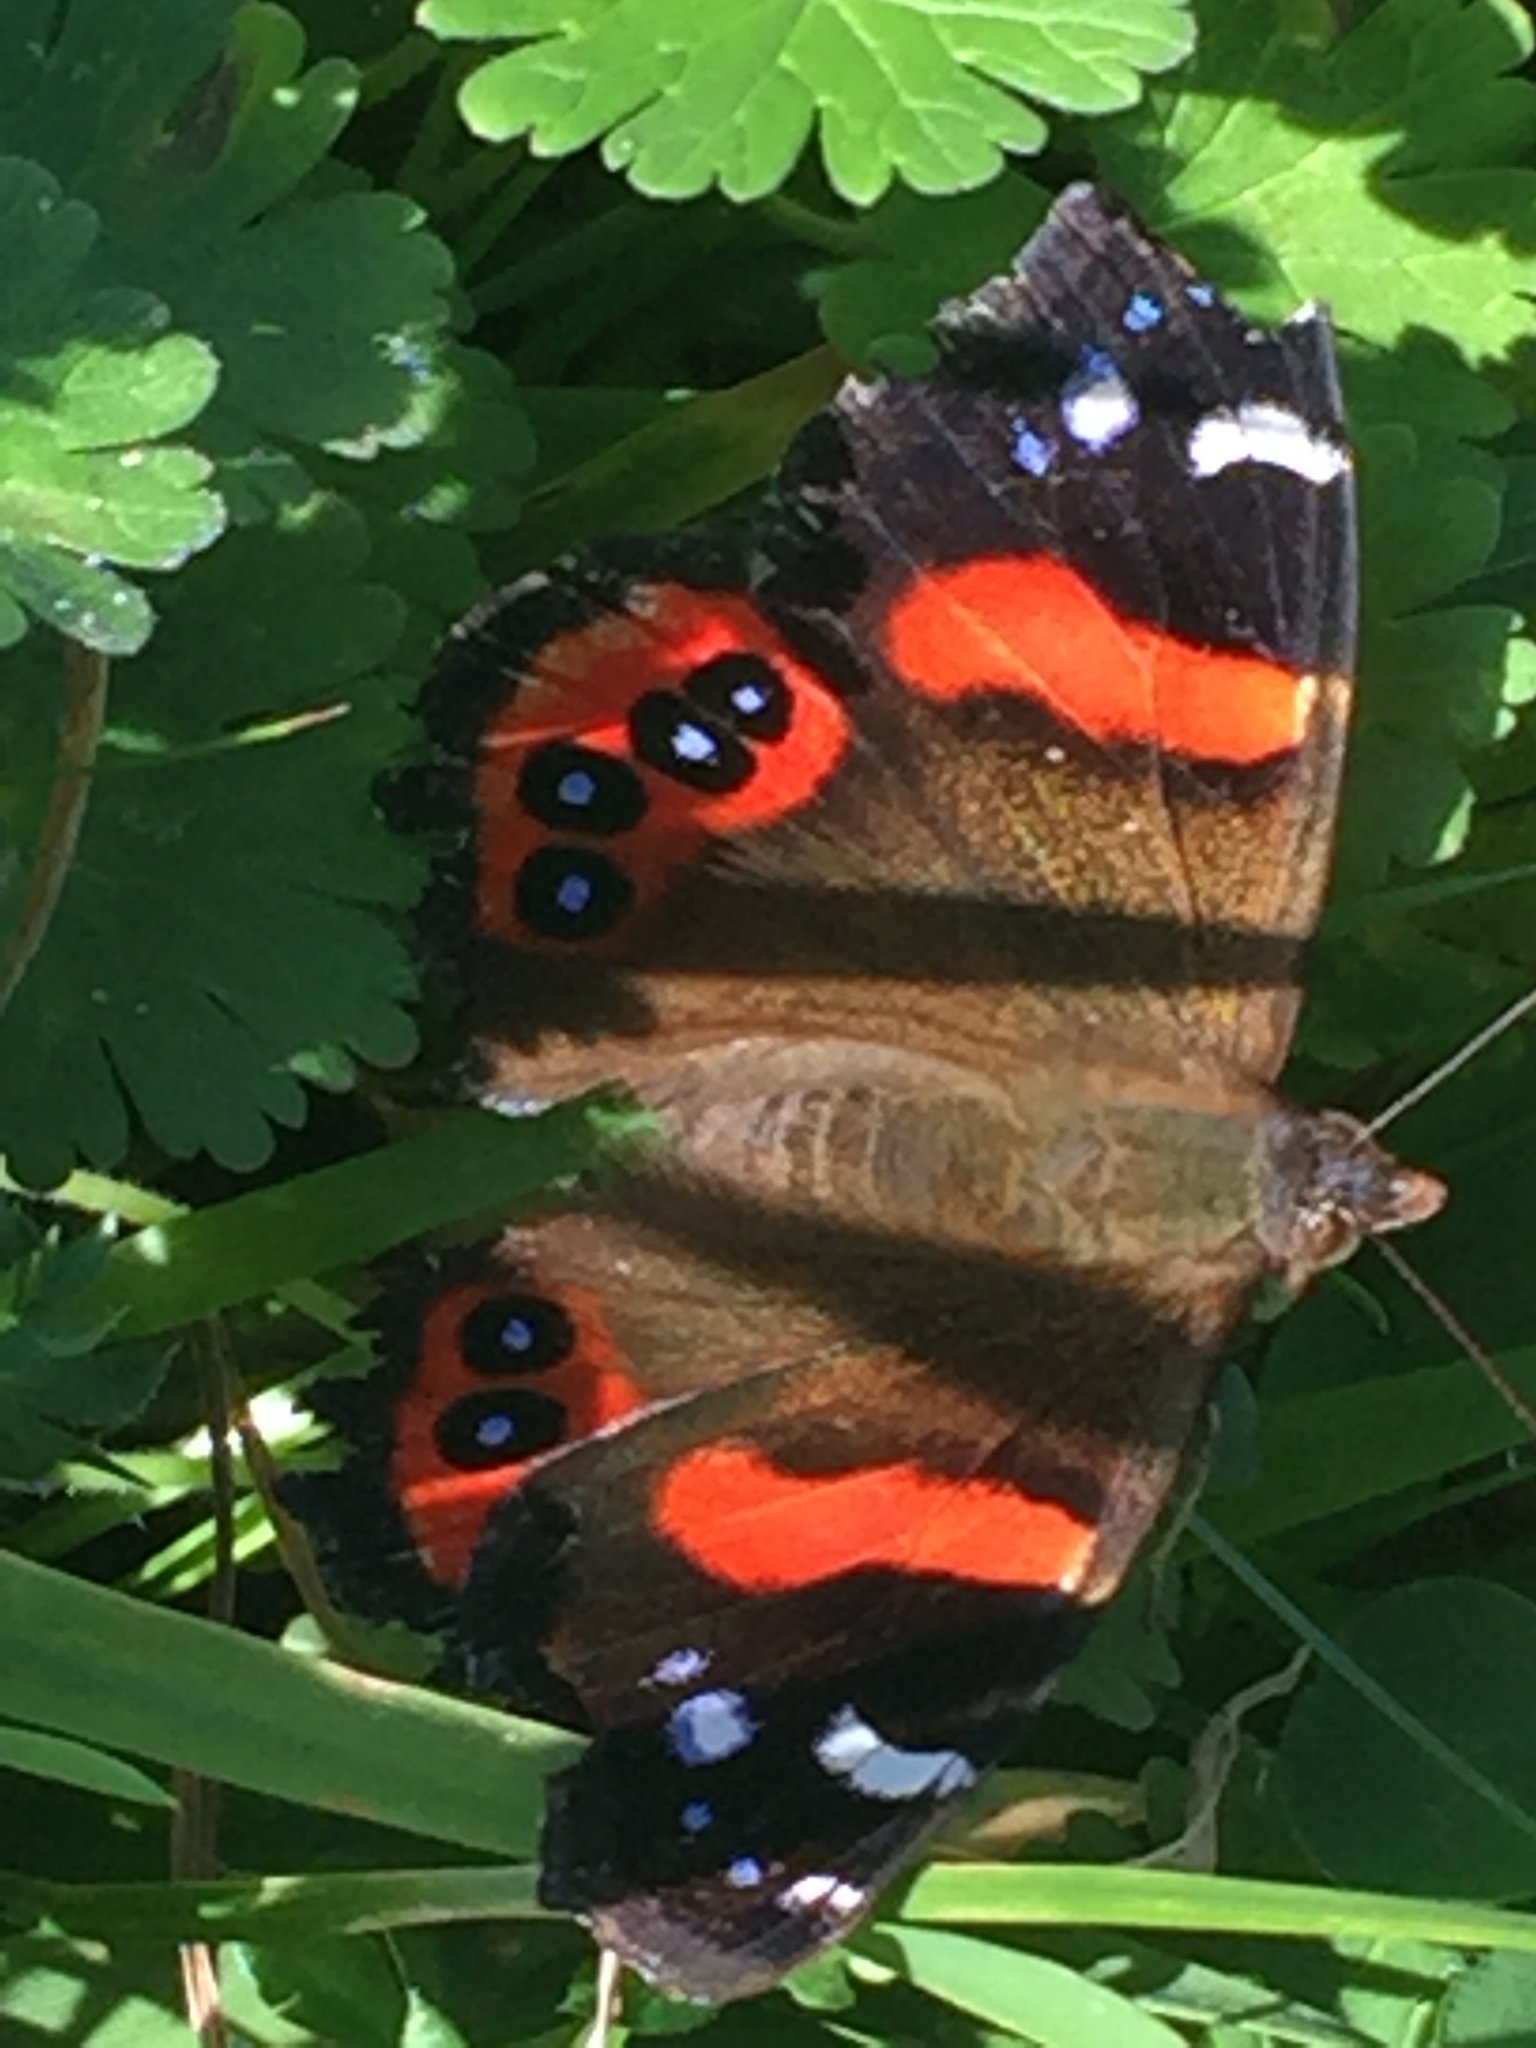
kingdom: Animalia
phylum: Arthropoda
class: Insecta
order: Lepidoptera
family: Nymphalidae
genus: Vanessa
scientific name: Vanessa gonerilla
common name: New zealand red admiral
